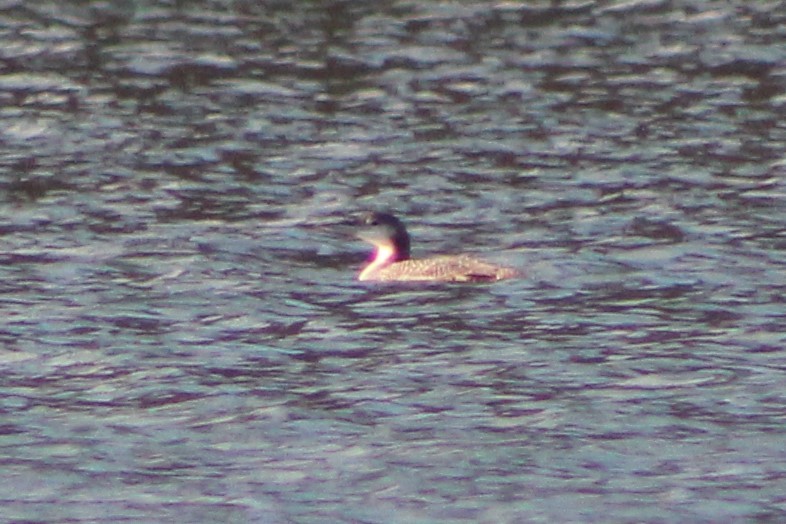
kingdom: Animalia
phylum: Chordata
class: Aves
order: Gaviiformes
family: Gaviidae
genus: Gavia
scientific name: Gavia immer
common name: Common loon
